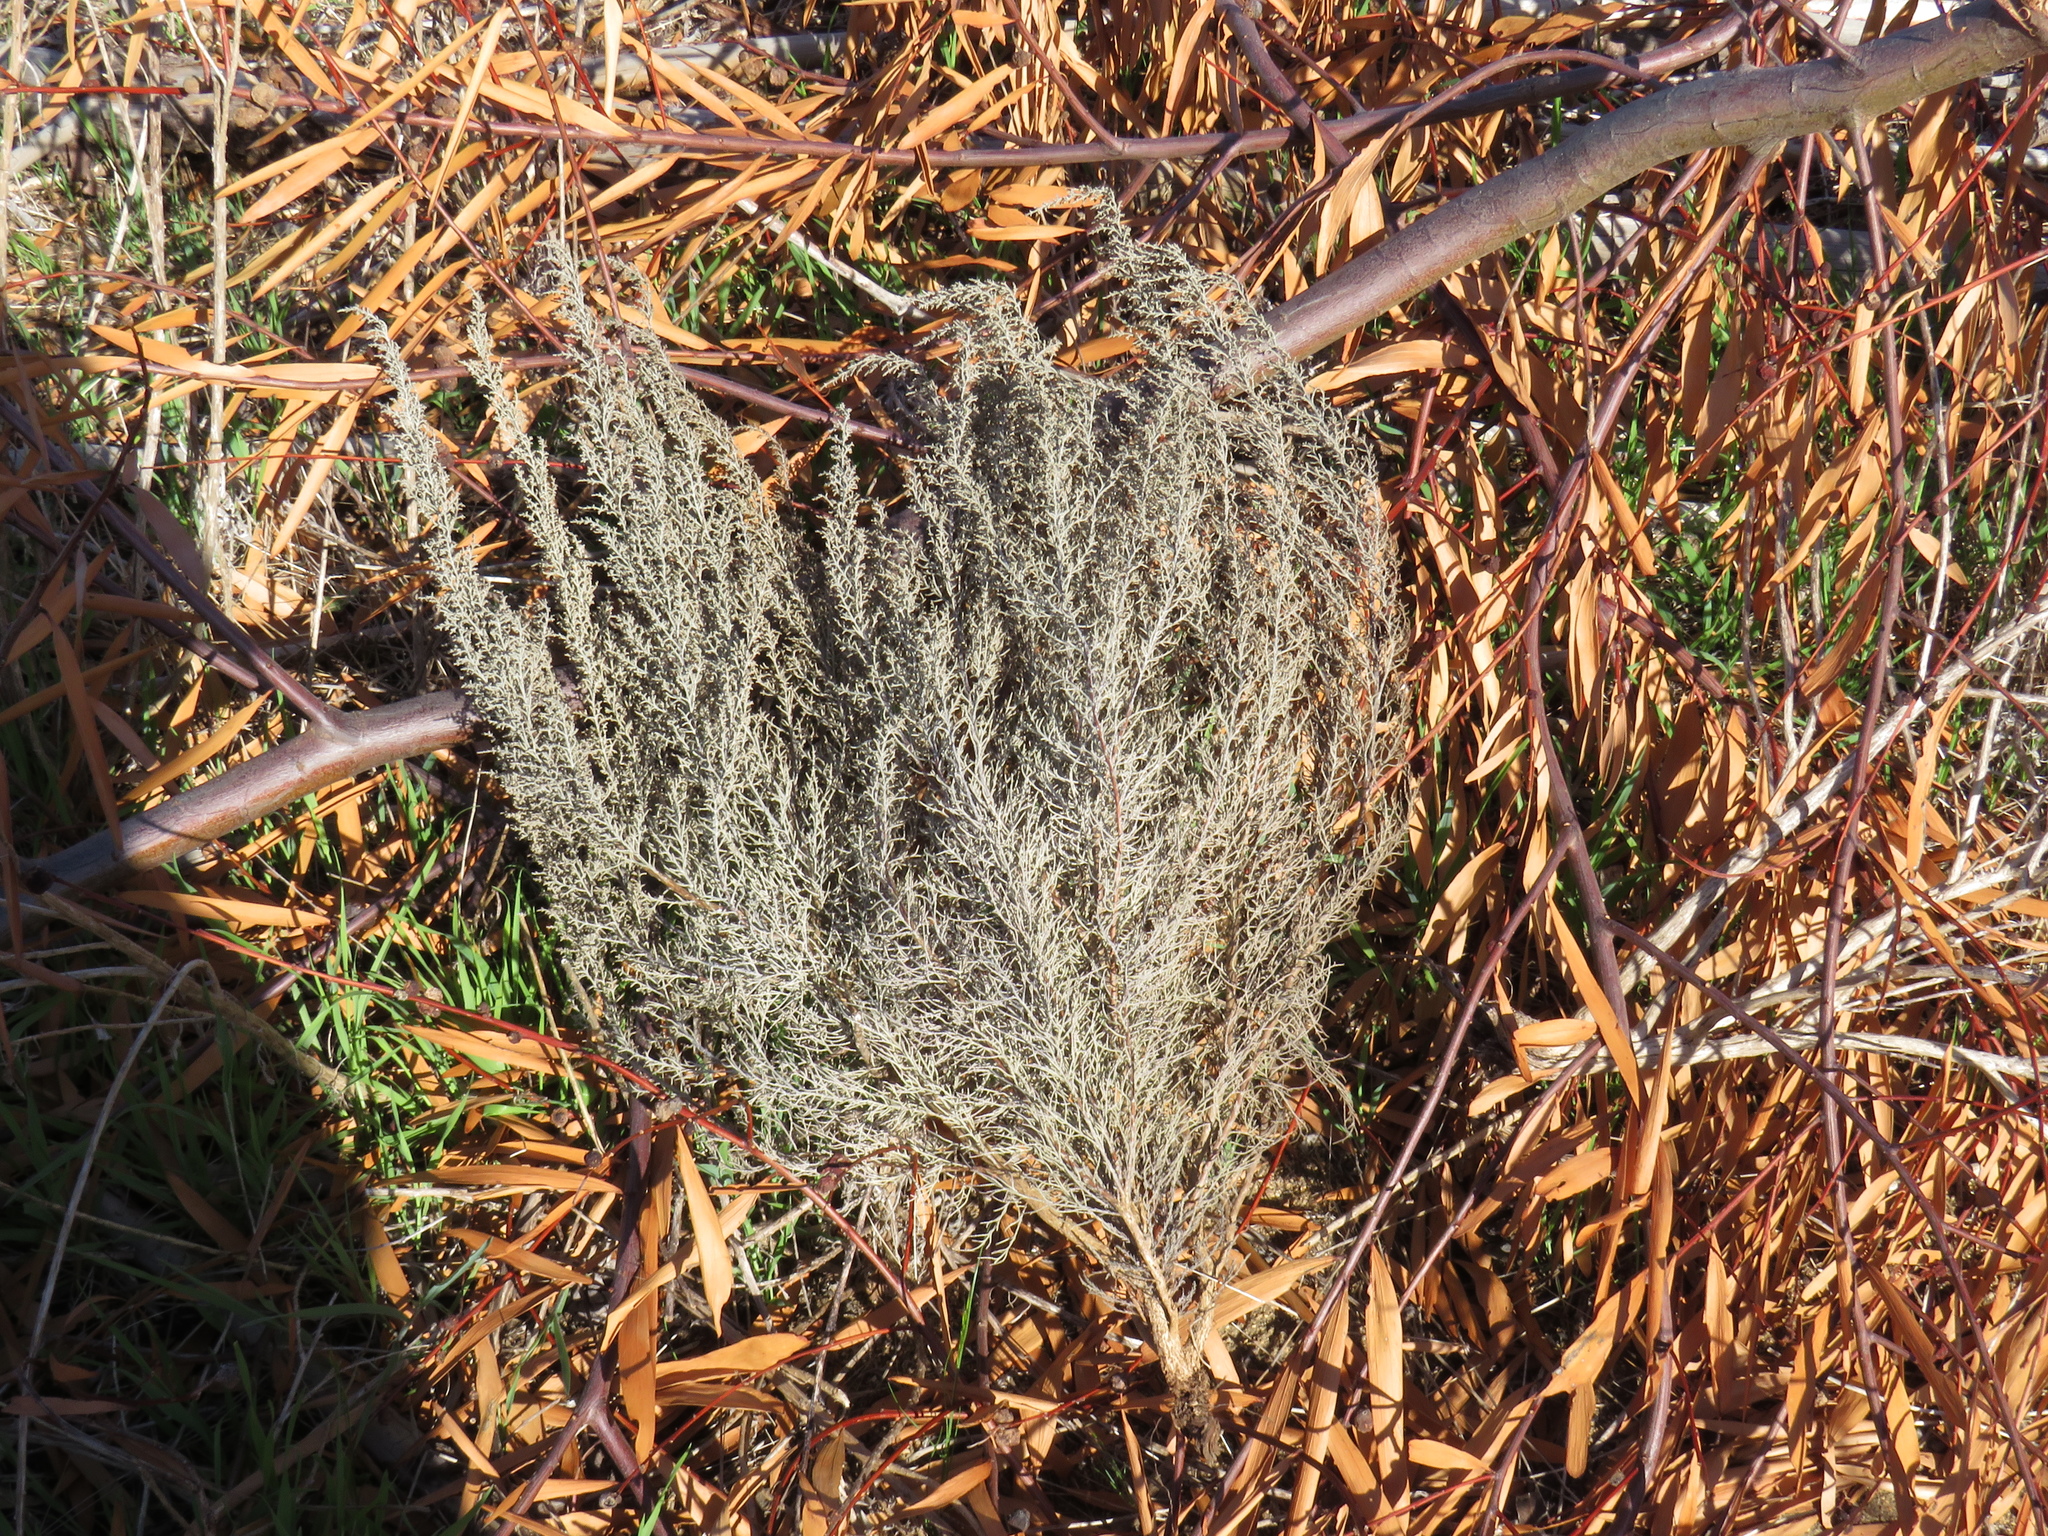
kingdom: Plantae
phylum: Tracheophyta
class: Magnoliopsida
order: Asterales
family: Asteraceae
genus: Dicerothamnus
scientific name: Dicerothamnus rhinocerotis
